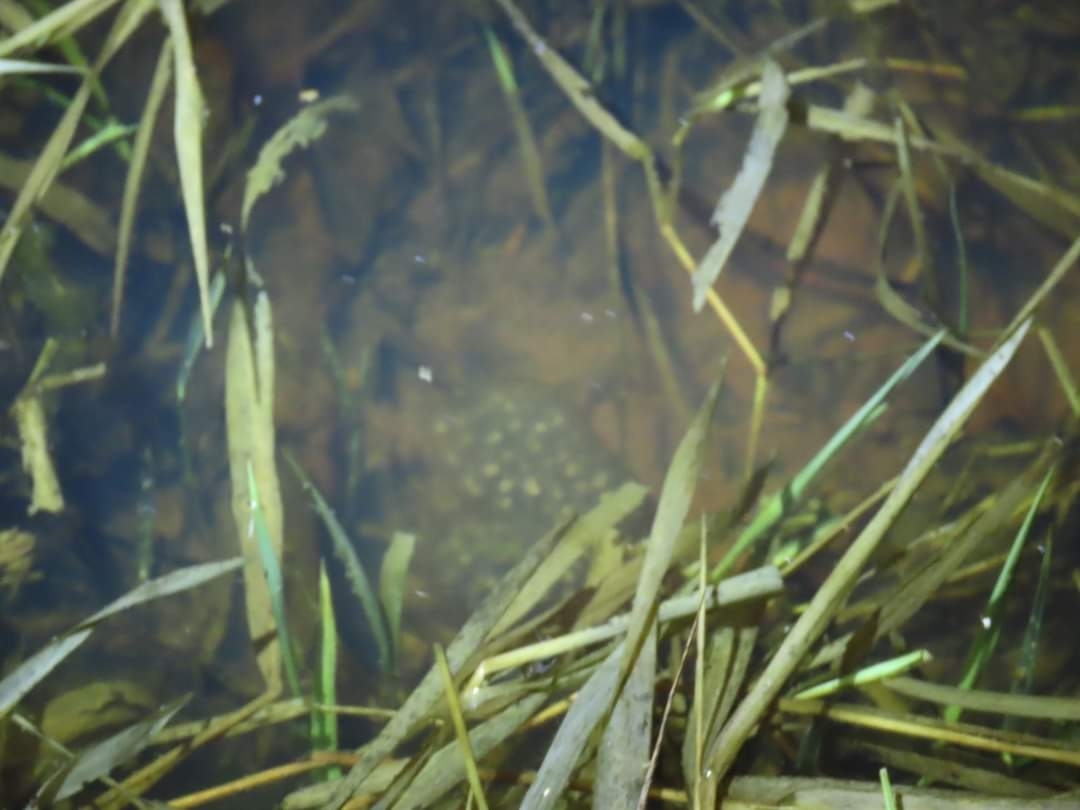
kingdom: Animalia
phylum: Chordata
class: Amphibia
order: Caudata
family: Ambystomatidae
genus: Ambystoma
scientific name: Ambystoma jeffersonianum
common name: Jefferson salamander
